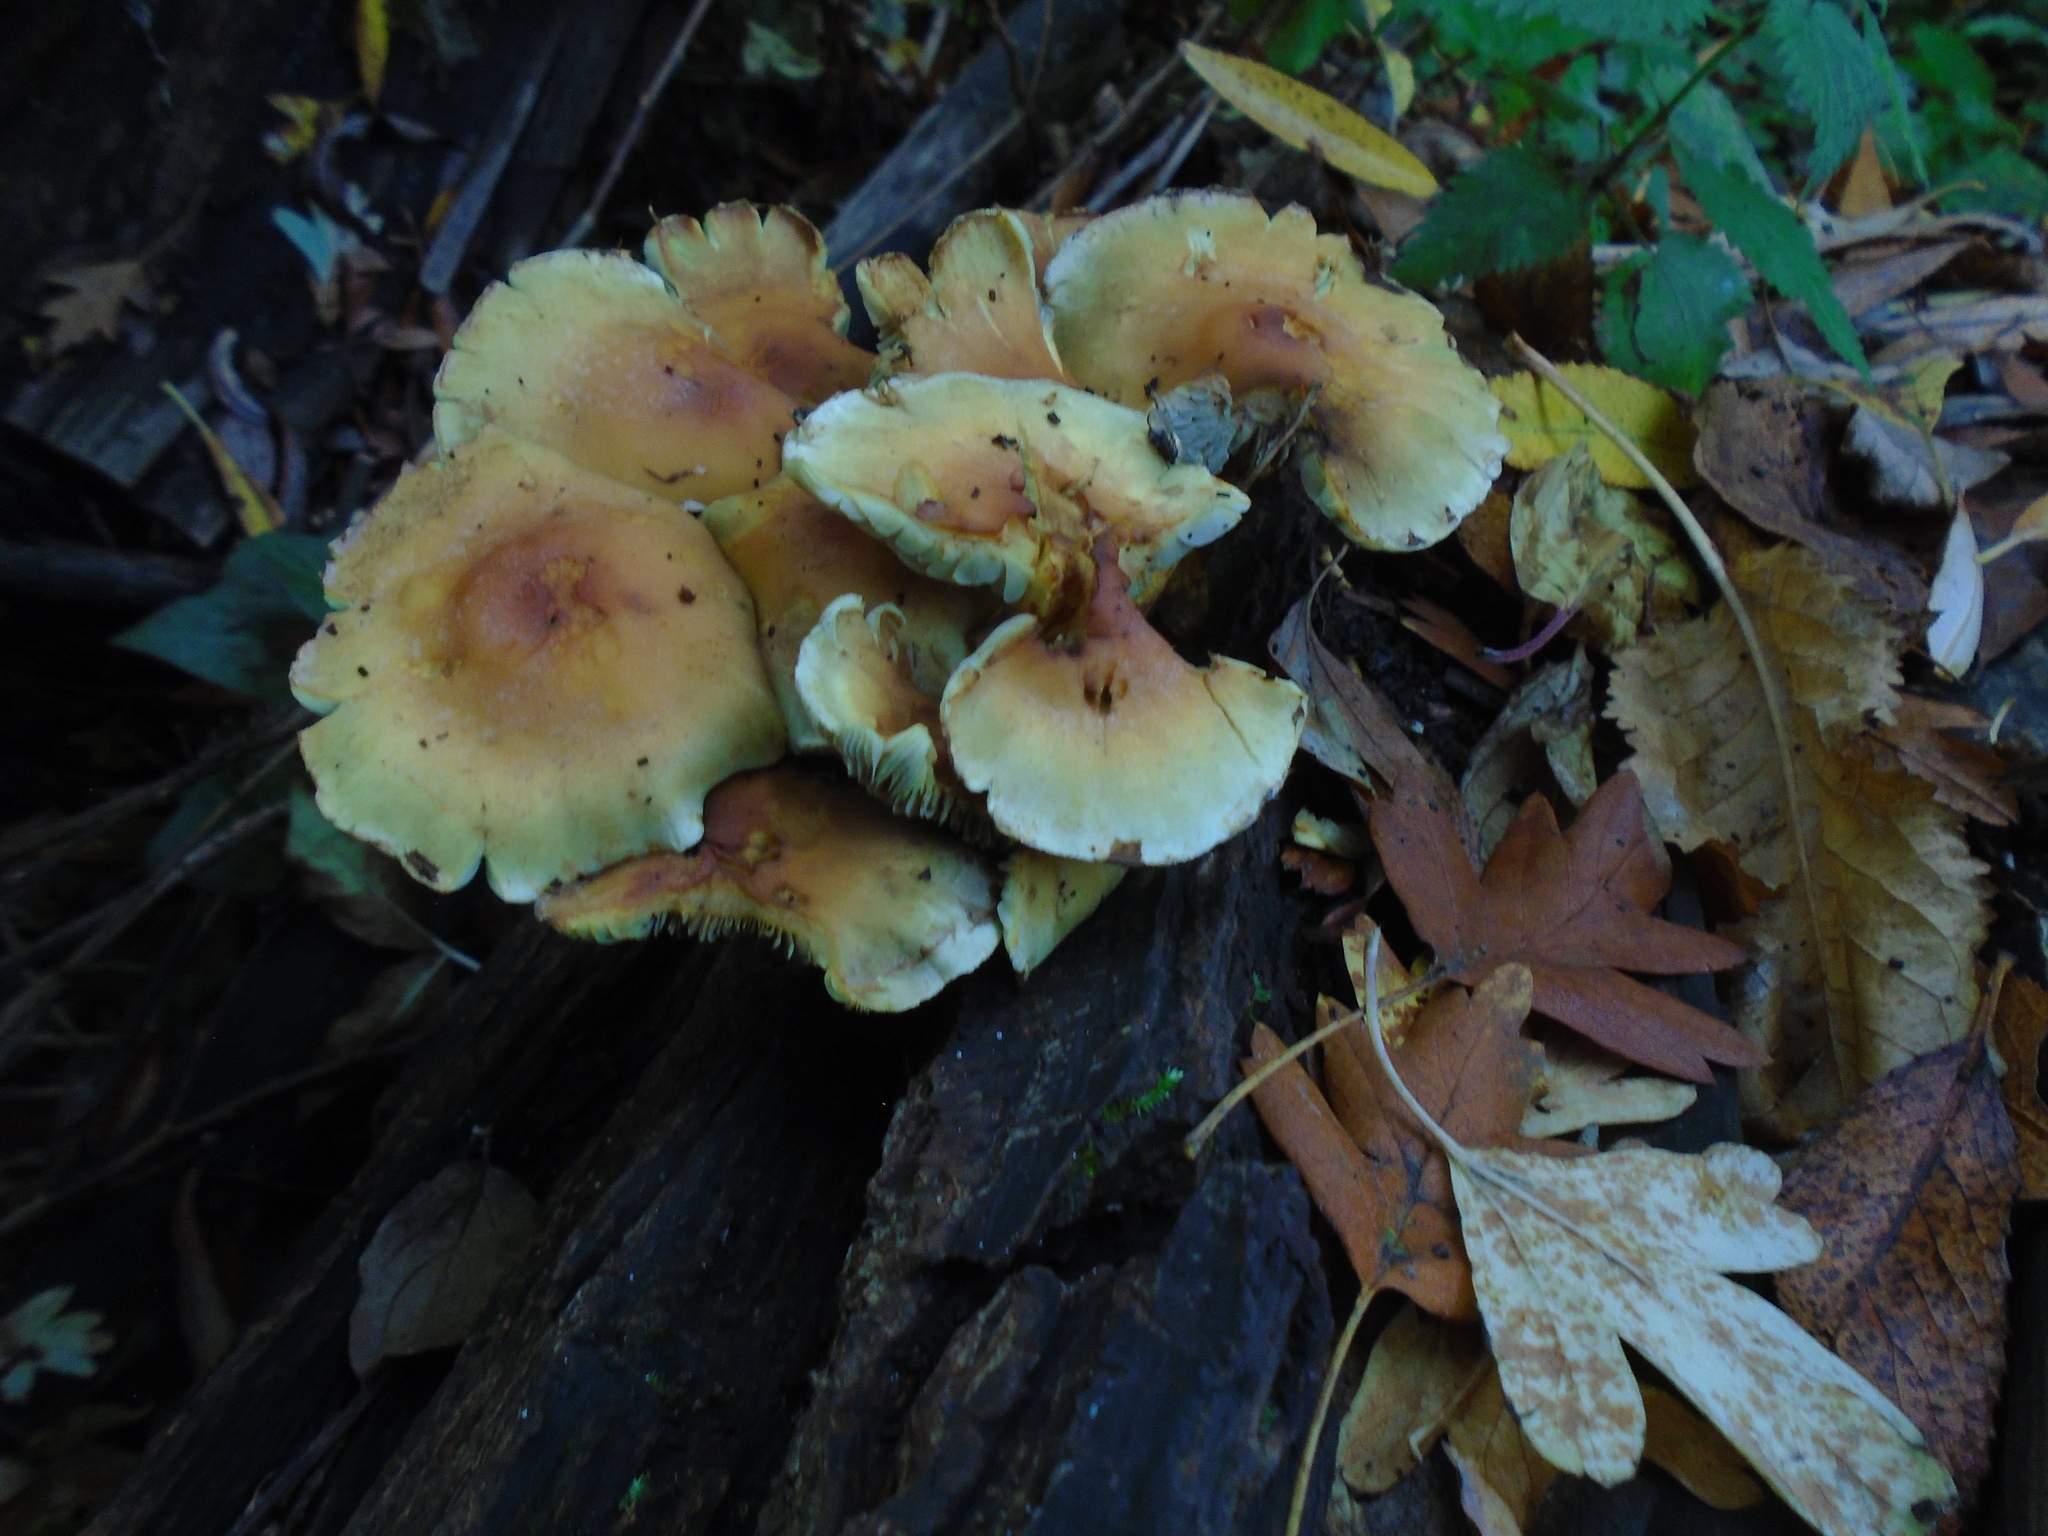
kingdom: Fungi
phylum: Basidiomycota
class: Agaricomycetes
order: Agaricales
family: Strophariaceae
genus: Hypholoma
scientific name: Hypholoma fasciculare
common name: Sulphur tuft
